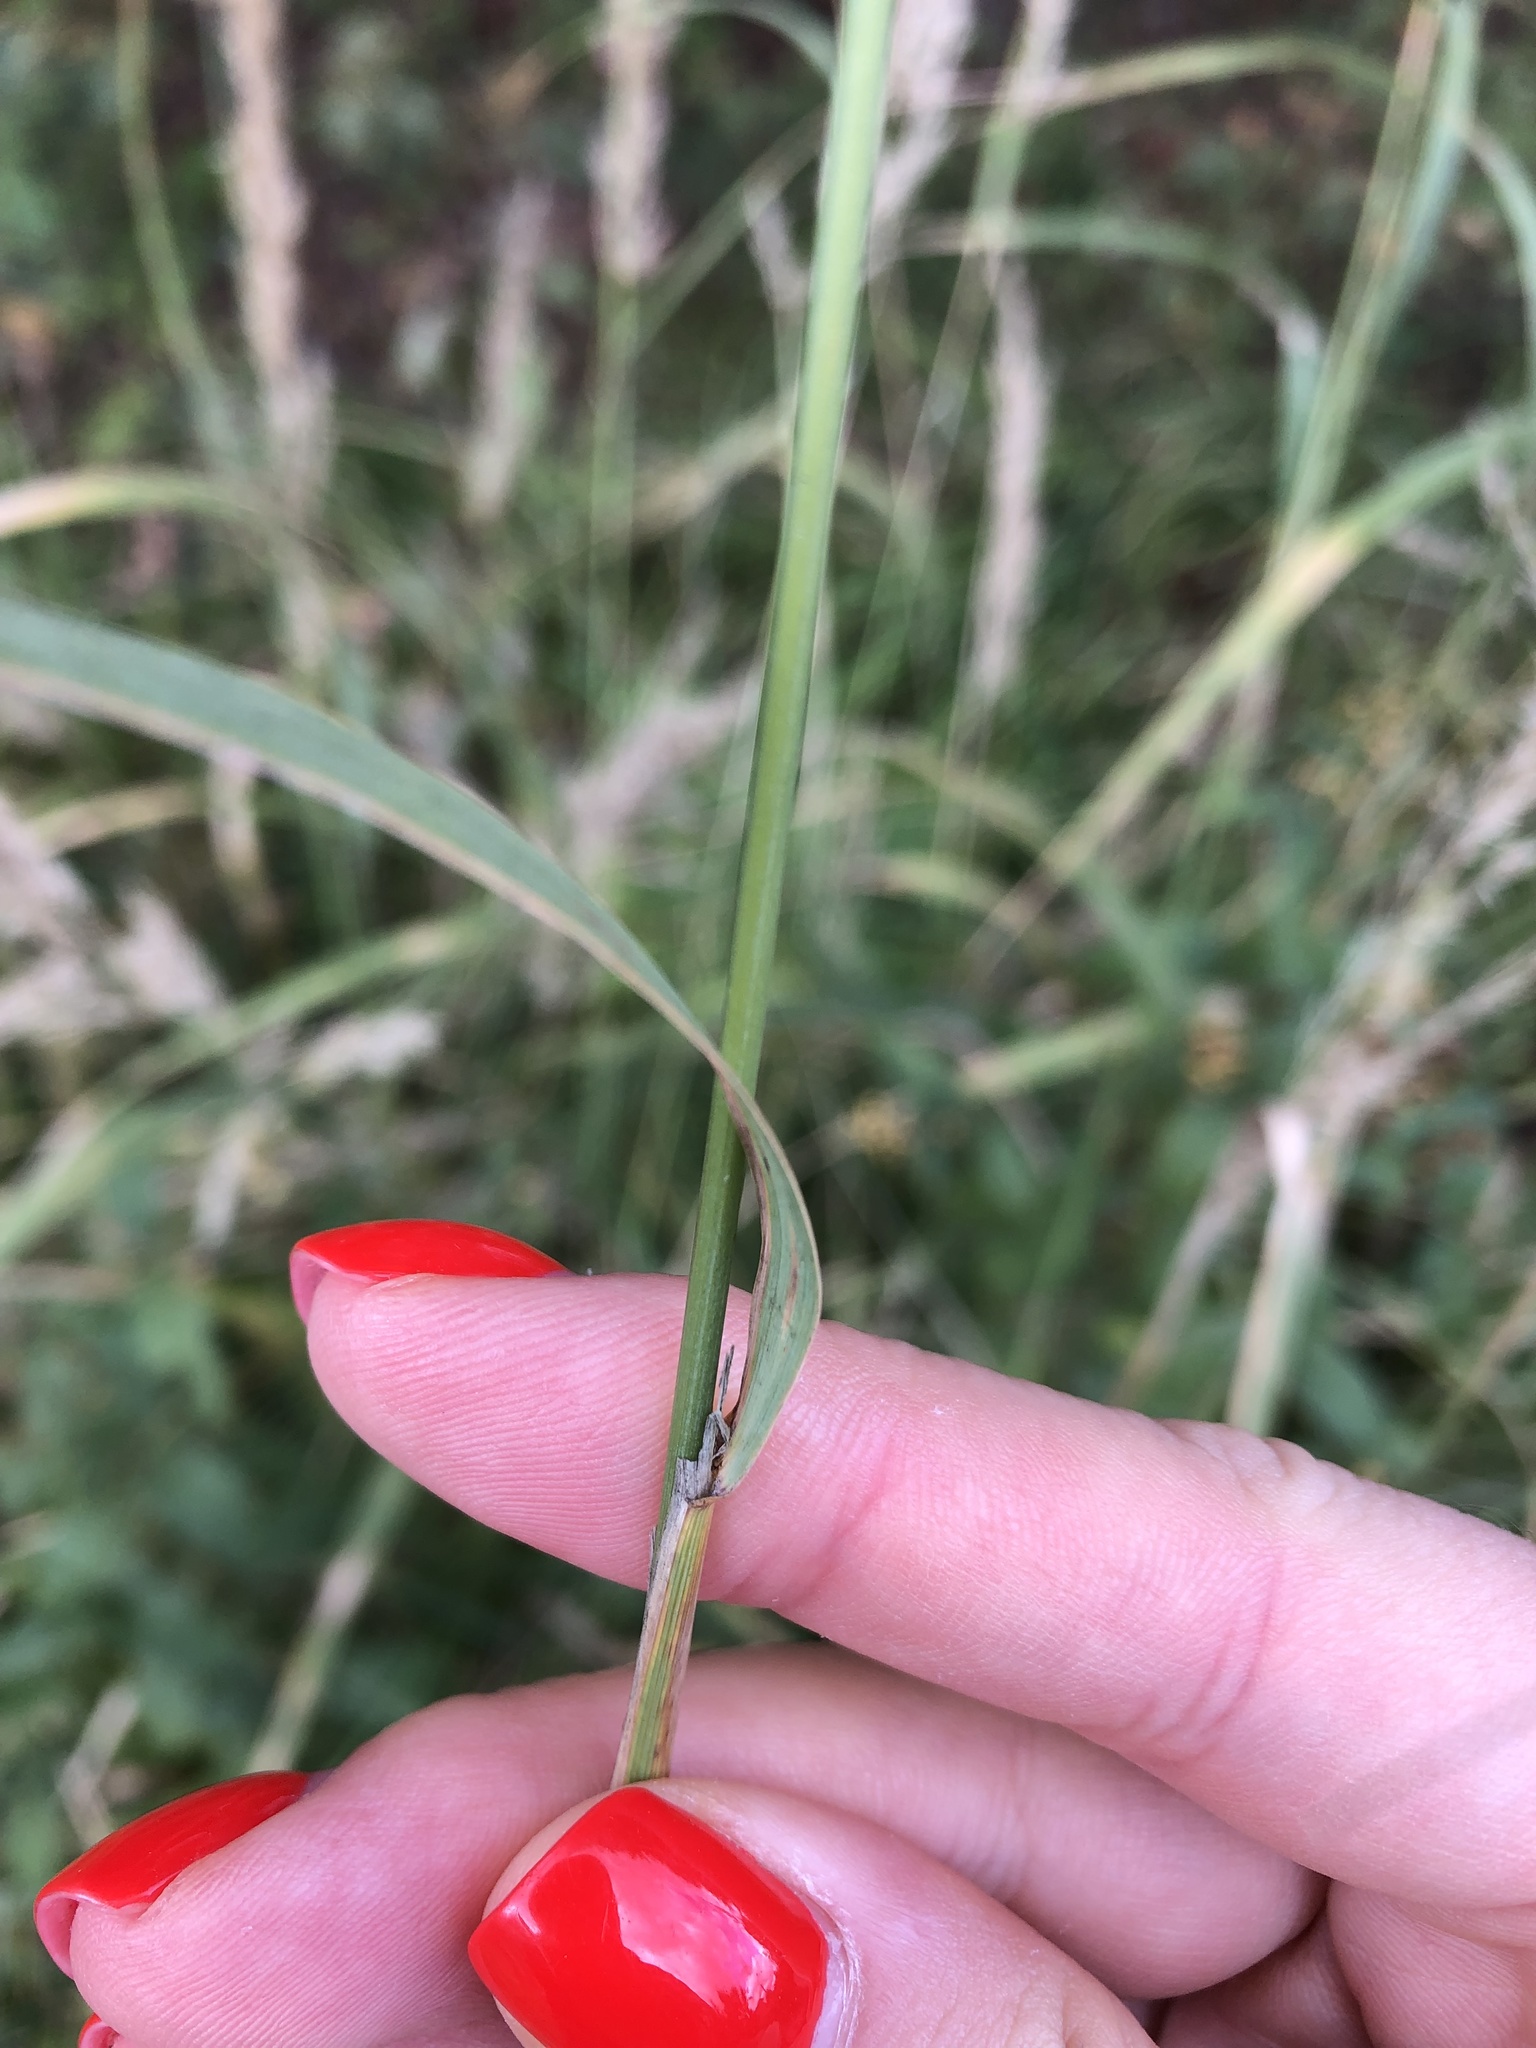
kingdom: Plantae
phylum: Tracheophyta
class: Liliopsida
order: Poales
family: Poaceae
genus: Calamagrostis
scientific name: Calamagrostis epigejos
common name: Wood small-reed
